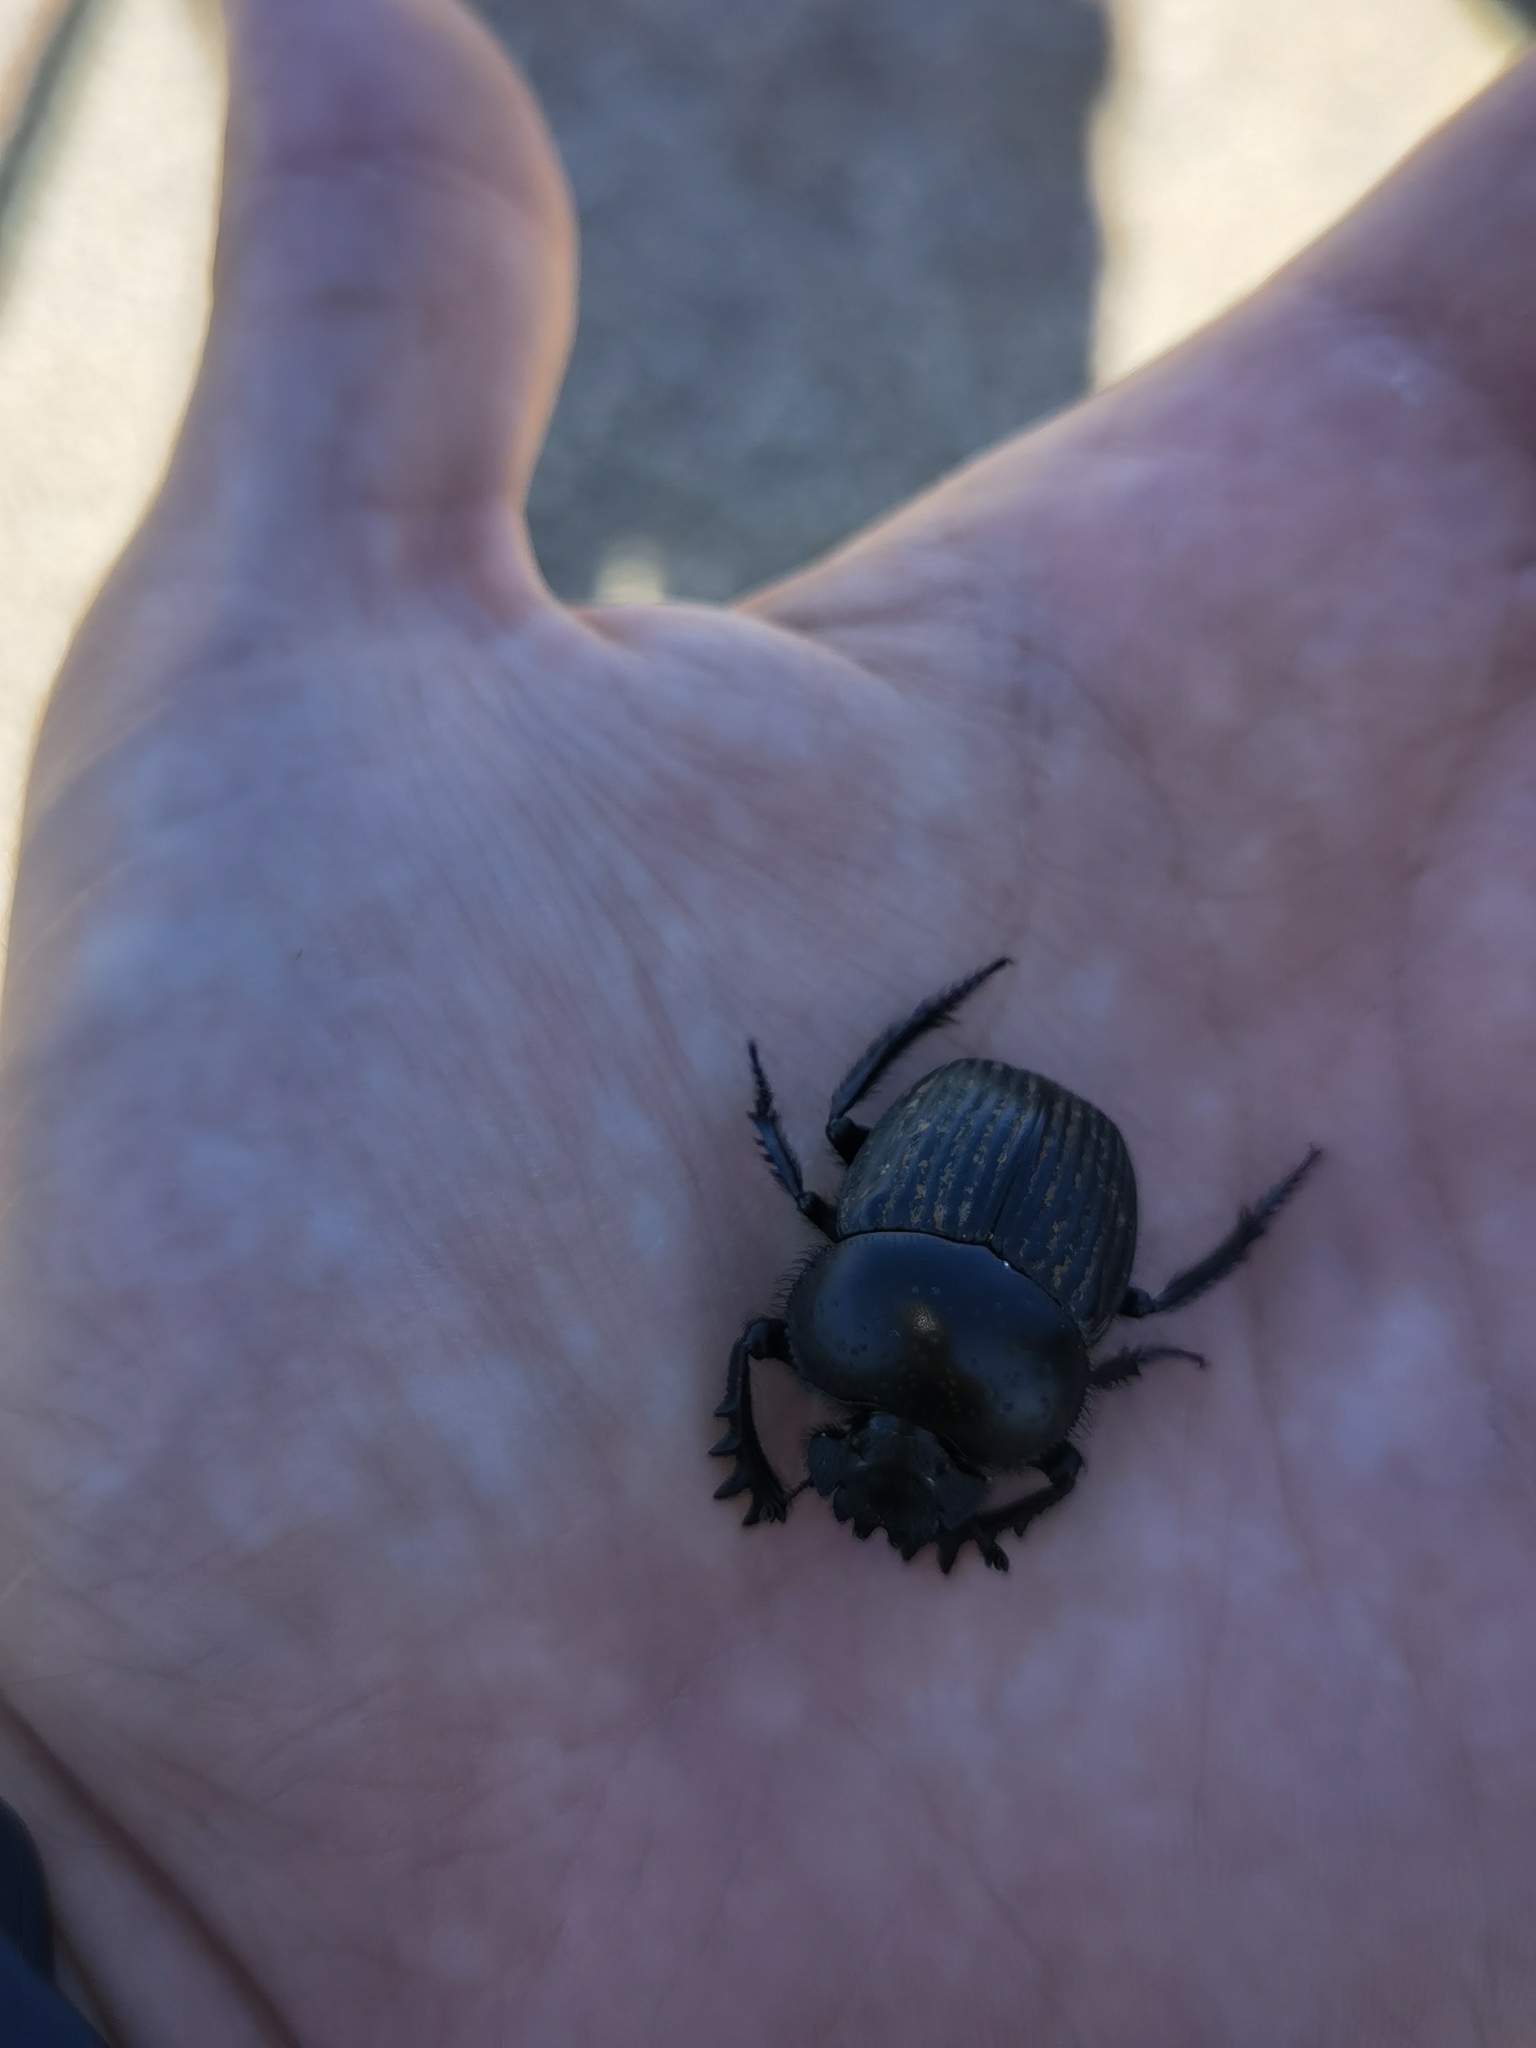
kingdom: Animalia
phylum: Arthropoda
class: Insecta
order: Coleoptera
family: Scarabaeidae
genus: Ateuchetus
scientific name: Ateuchetus laticollis
